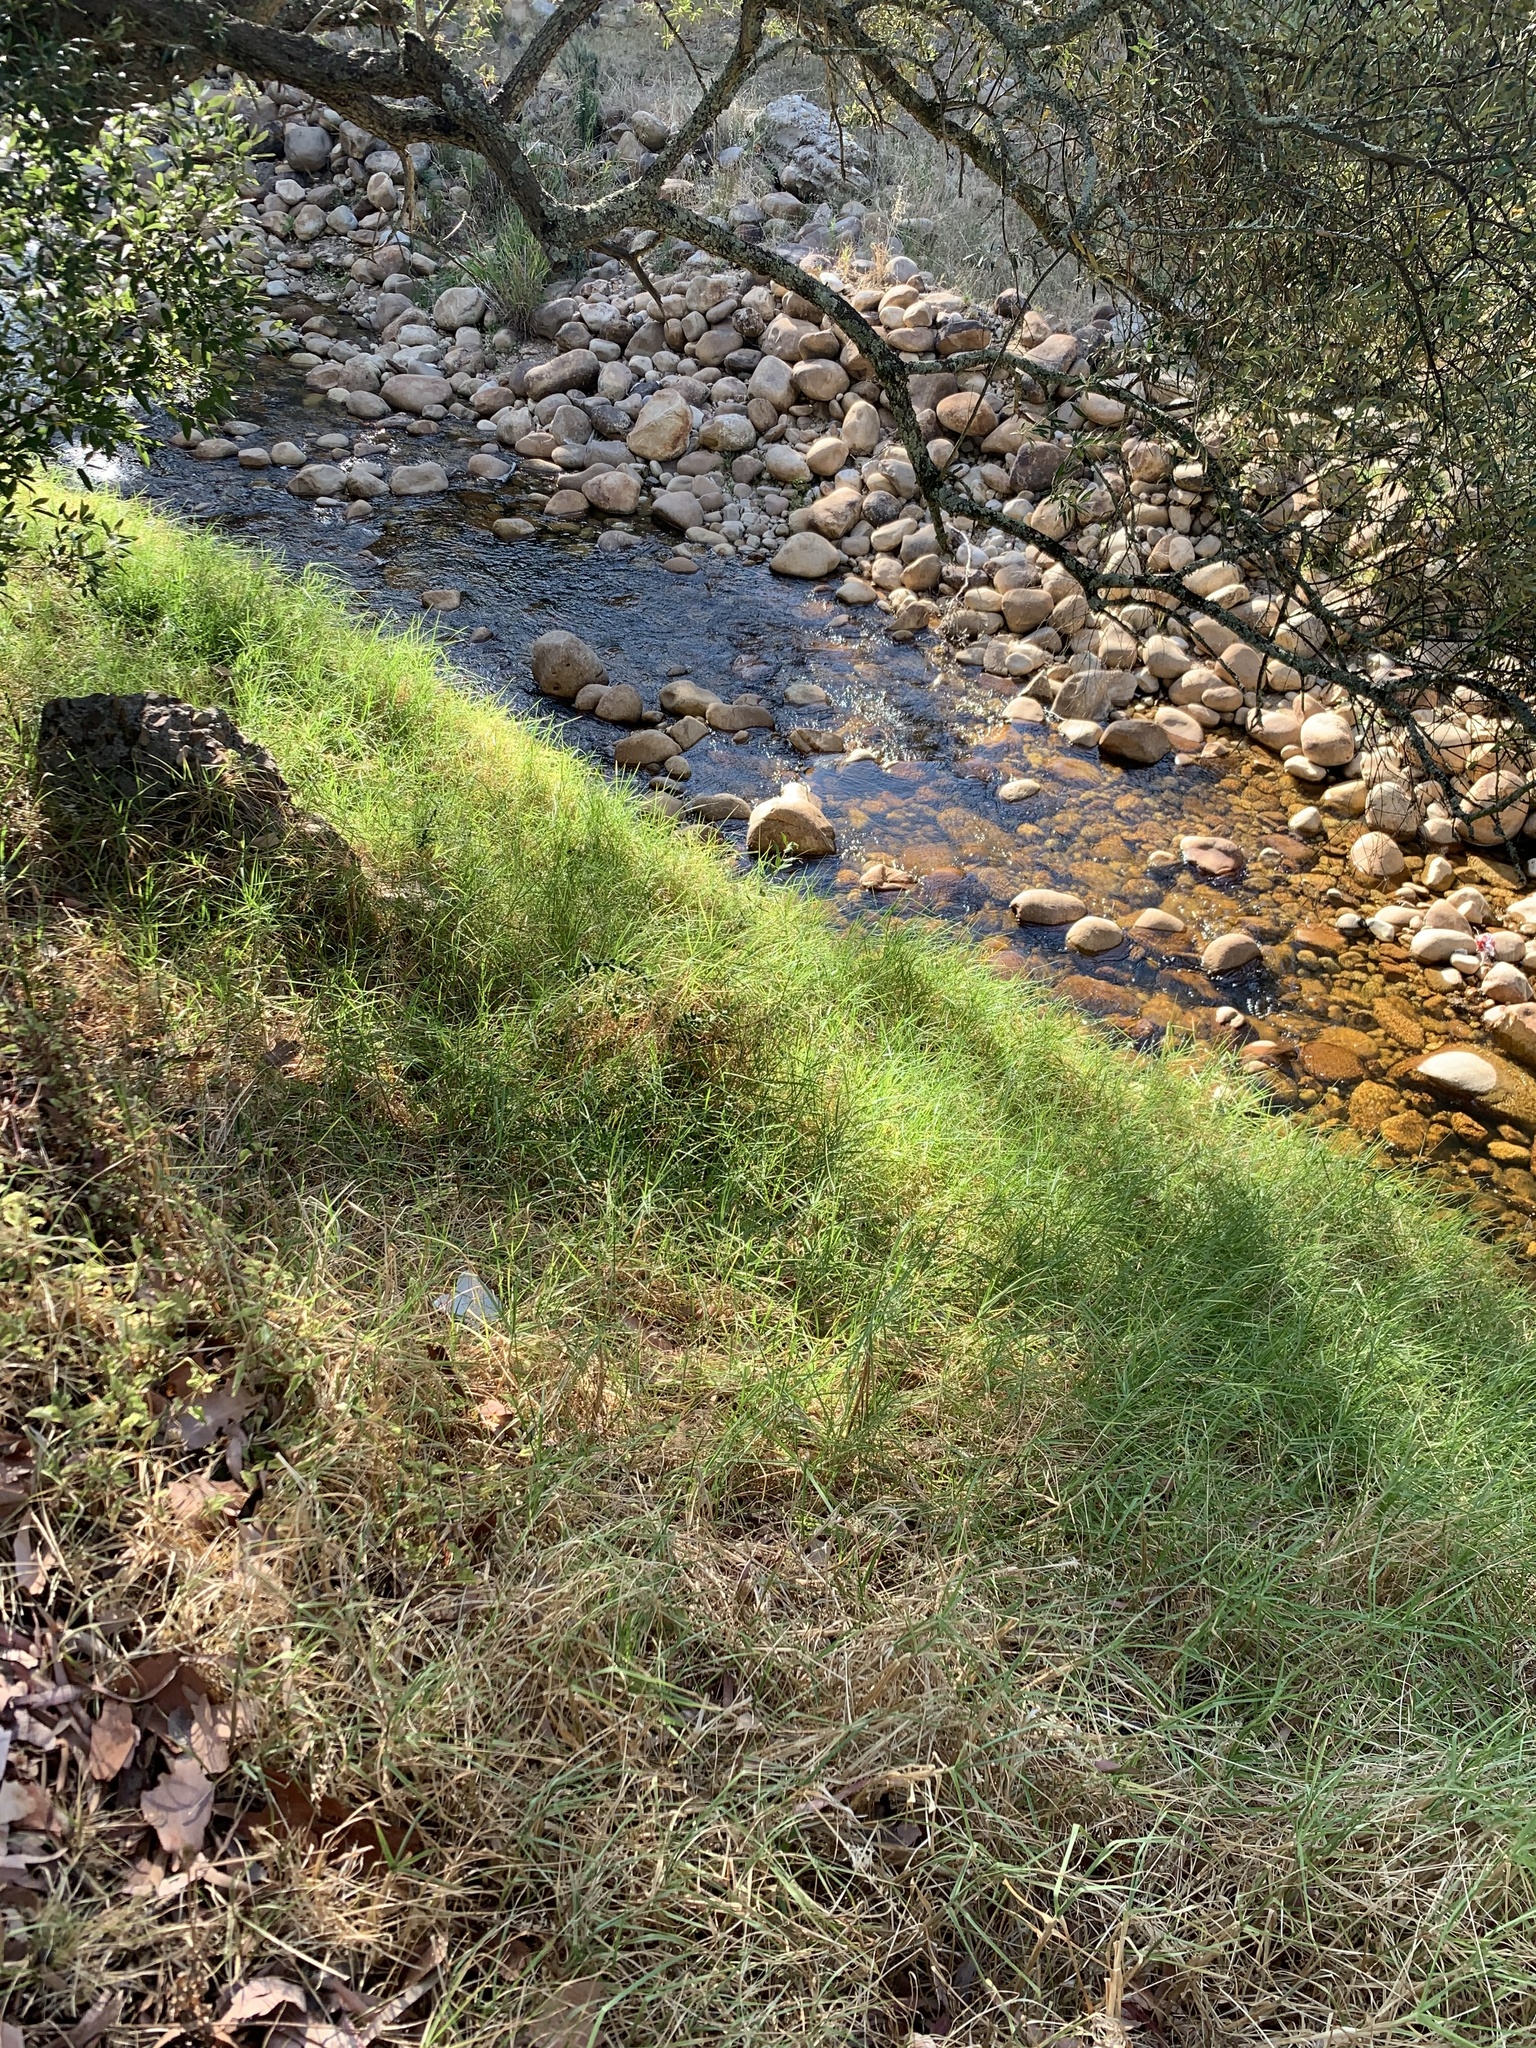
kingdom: Plantae
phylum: Tracheophyta
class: Liliopsida
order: Poales
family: Poaceae
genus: Cenchrus
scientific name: Cenchrus clandestinus
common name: Kikuyugrass
